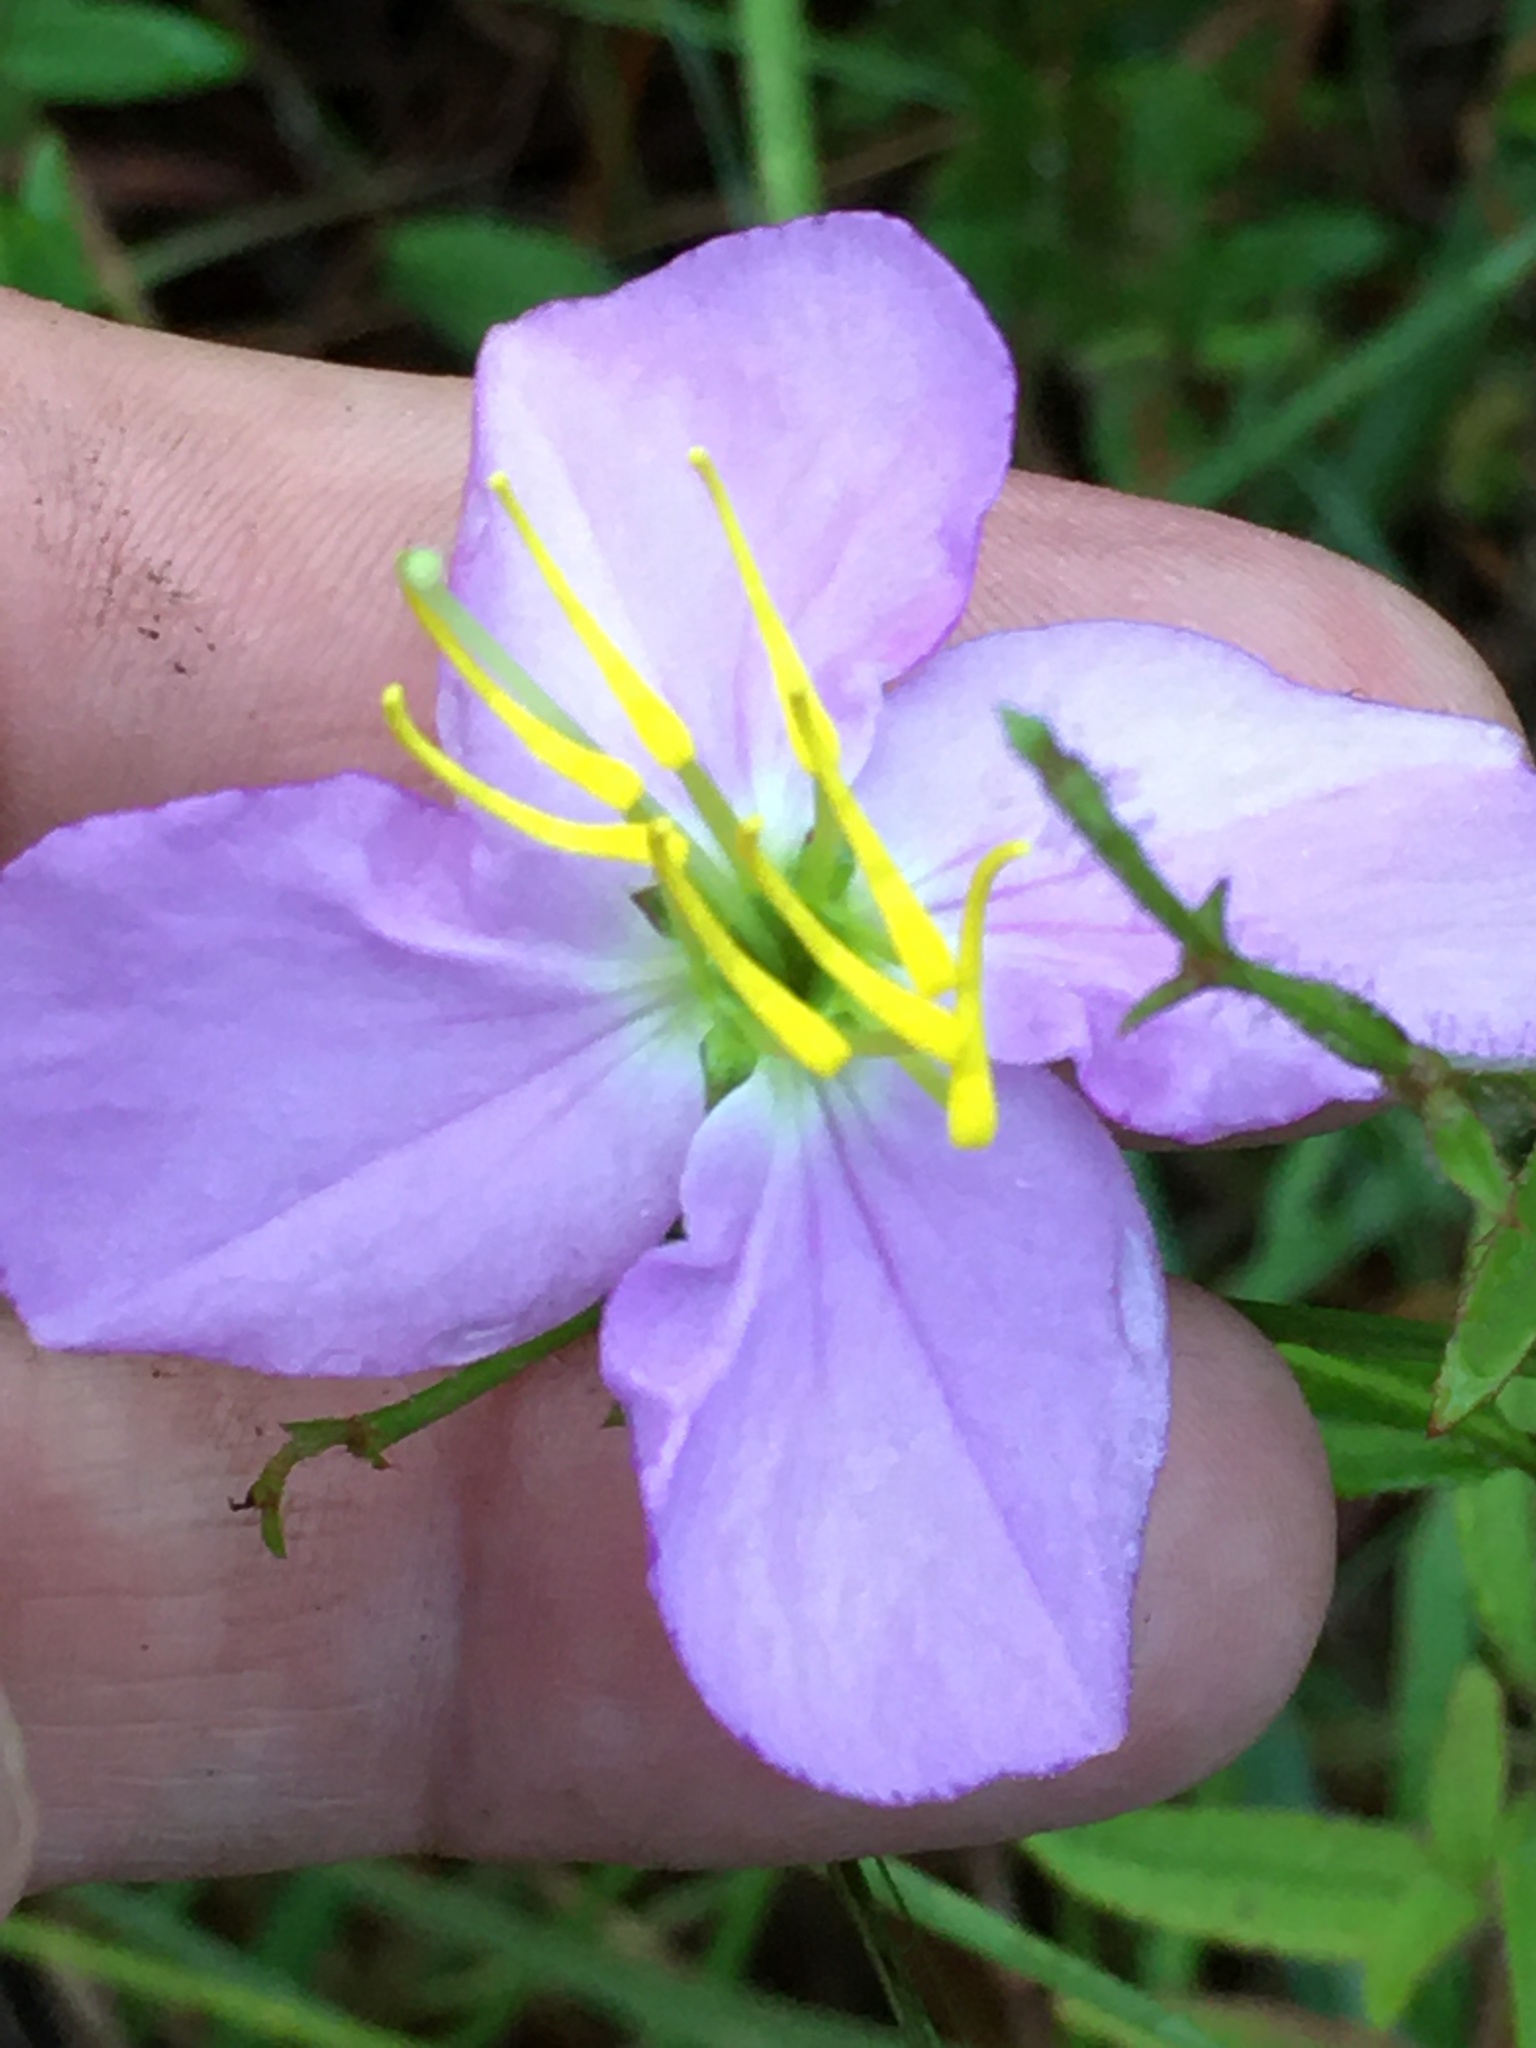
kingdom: Plantae
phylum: Tracheophyta
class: Magnoliopsida
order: Myrtales
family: Melastomataceae
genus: Rhexia
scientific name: Rhexia nashii
